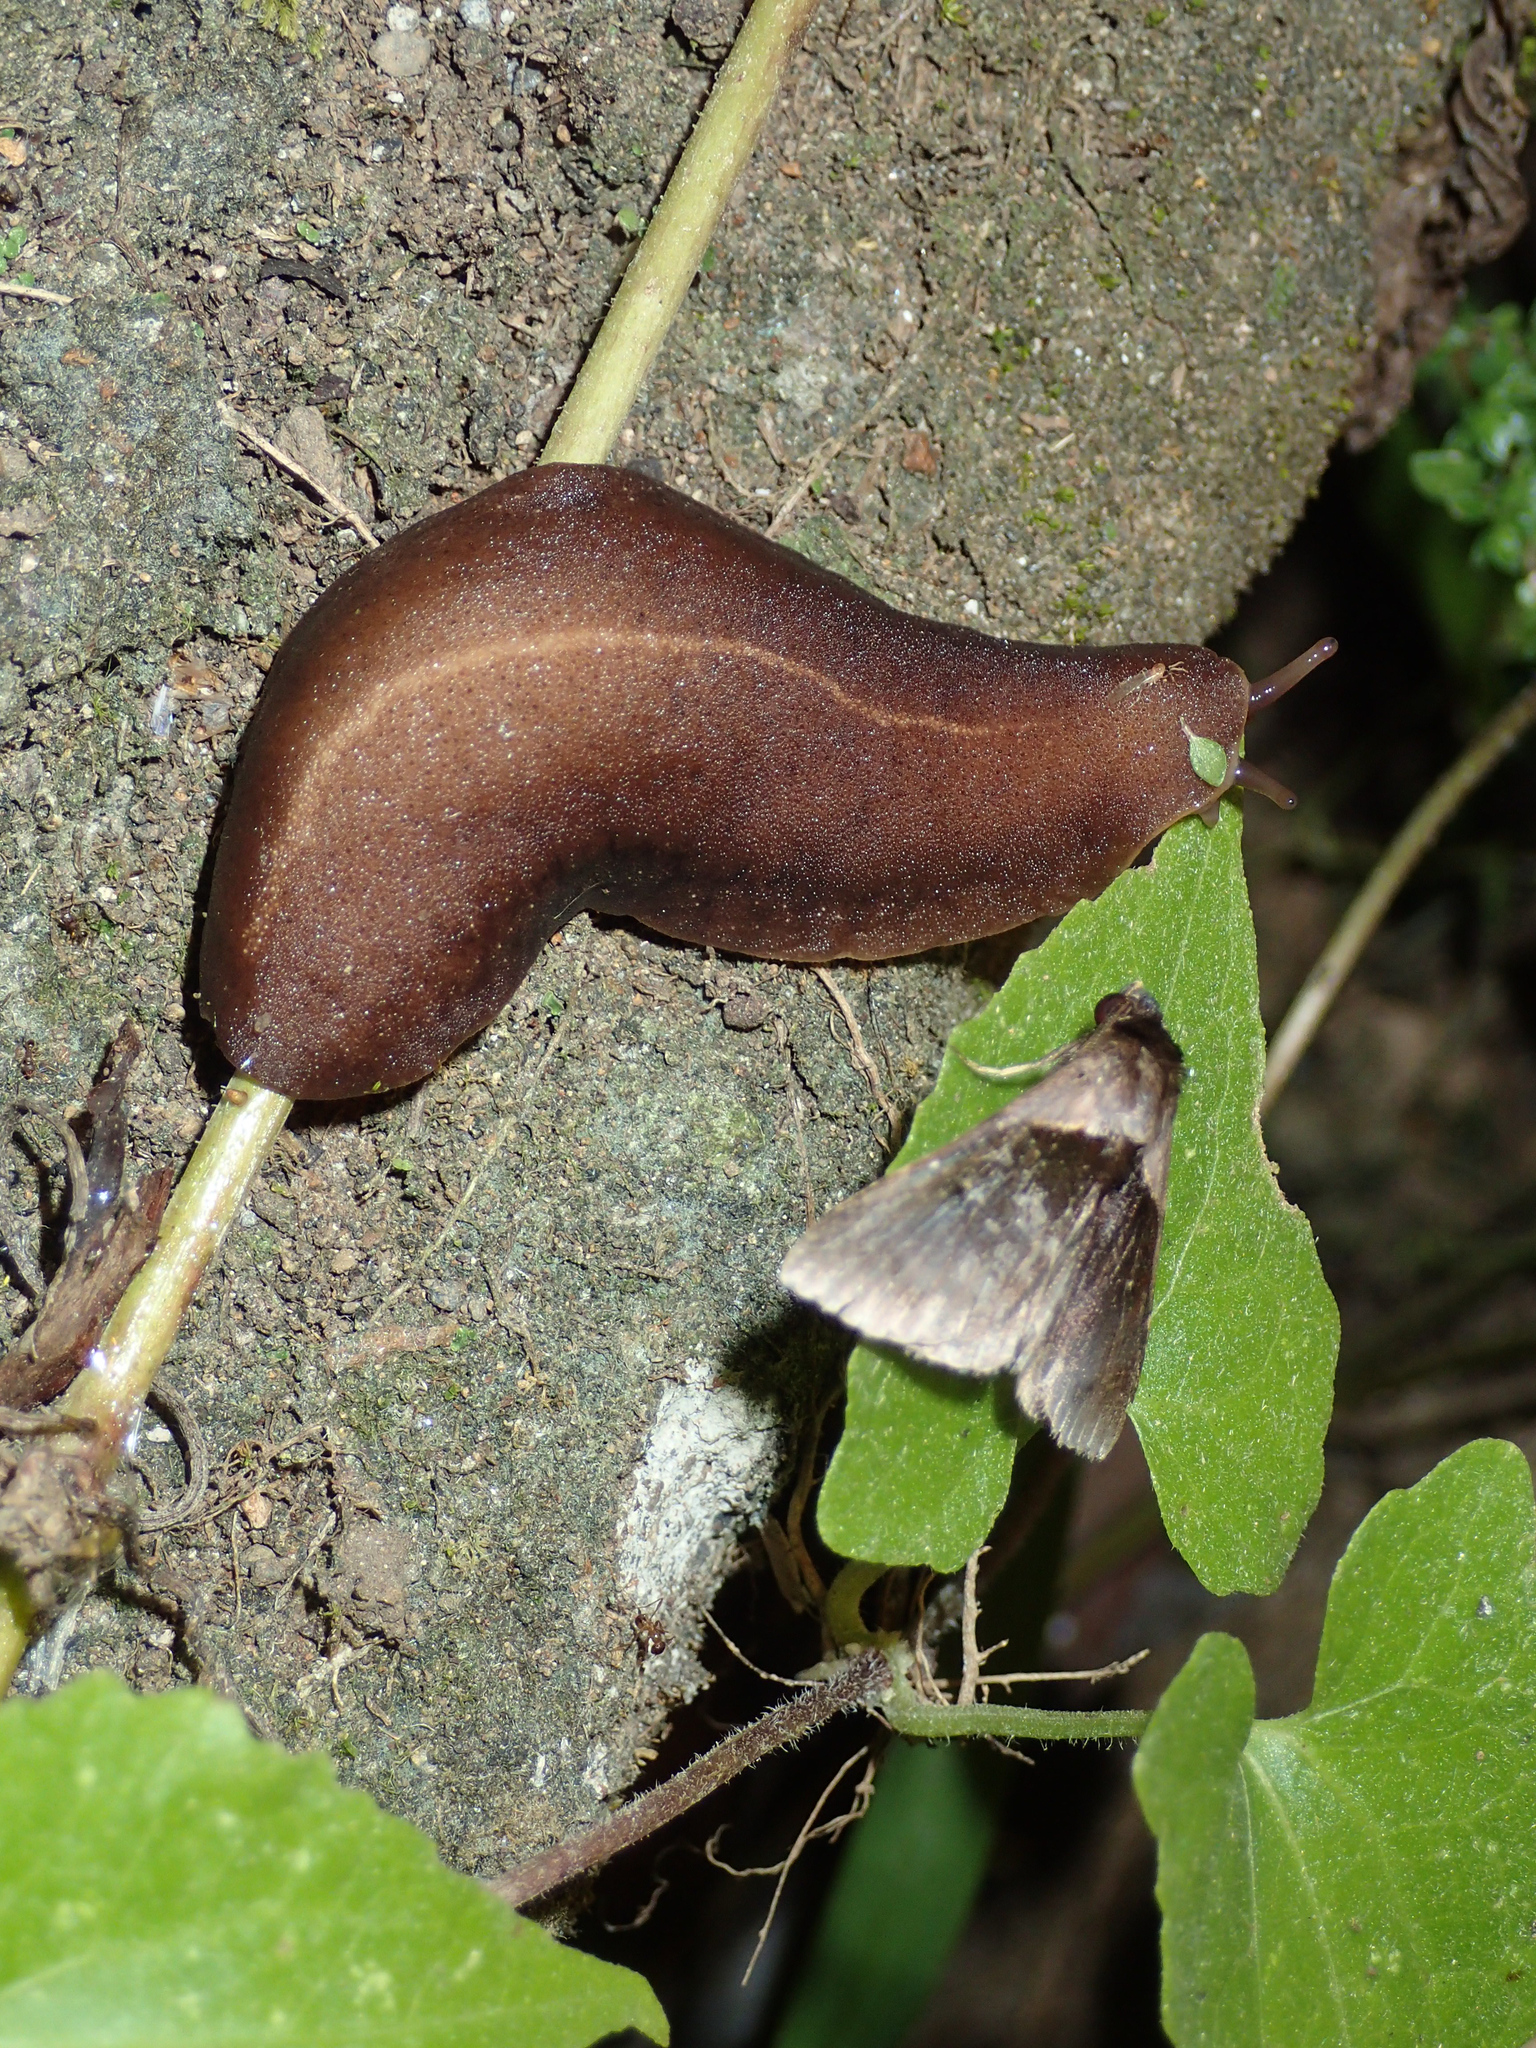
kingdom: Animalia
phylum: Mollusca
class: Gastropoda
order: Systellommatophora
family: Veronicellidae
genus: Laevicaulis
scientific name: Laevicaulis alte
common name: Tropical leatherleaf
